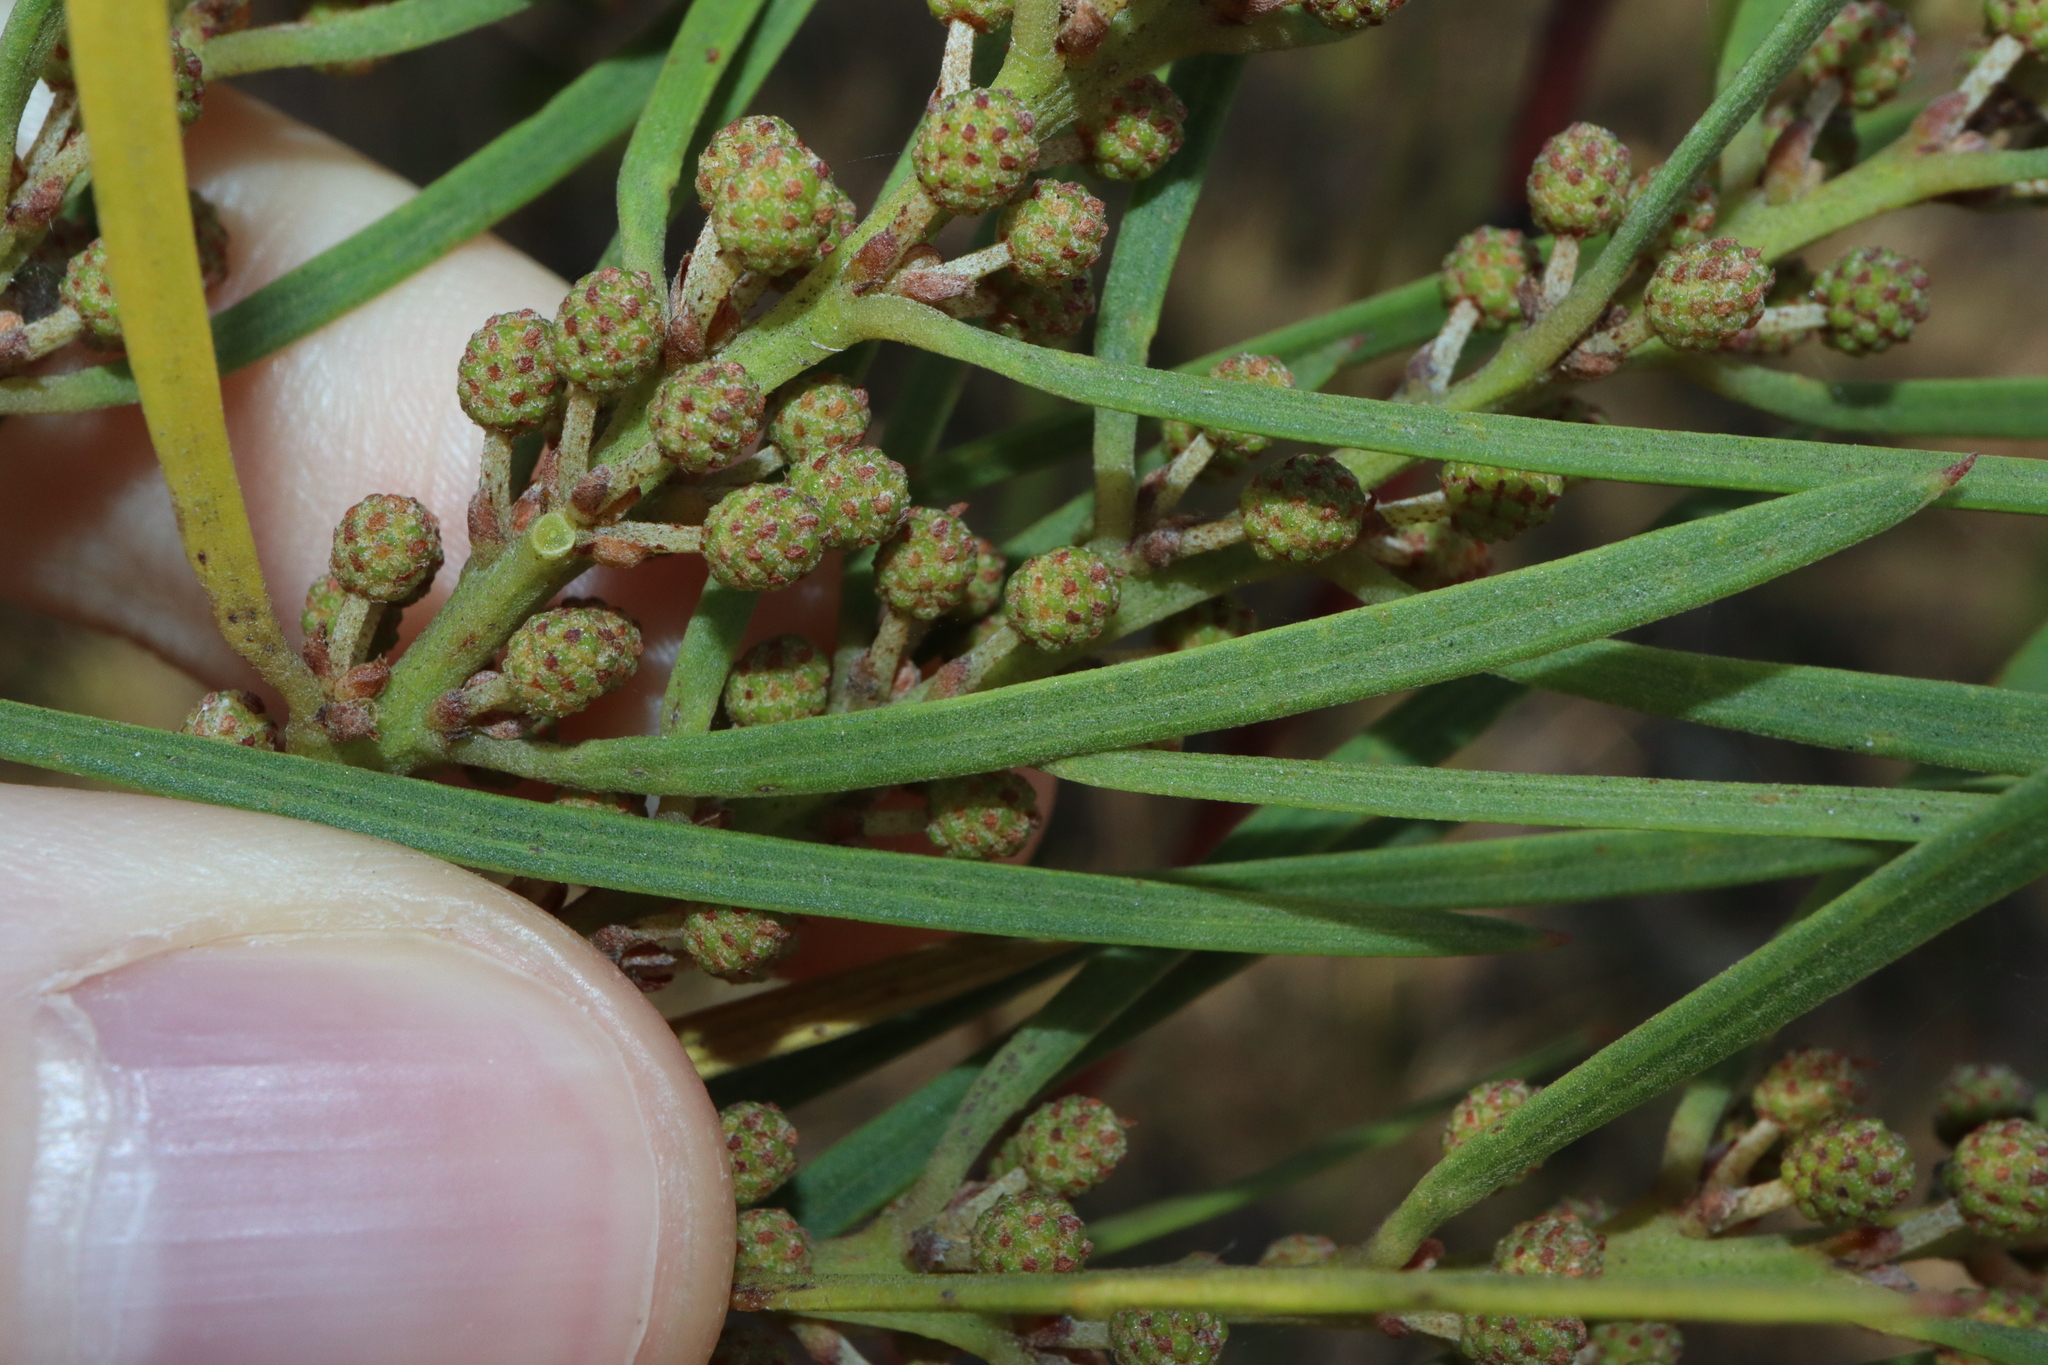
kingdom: Plantae
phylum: Tracheophyta
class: Magnoliopsida
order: Fabales
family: Fabaceae
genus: Acacia
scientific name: Acacia elongata
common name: Swamp wattle
